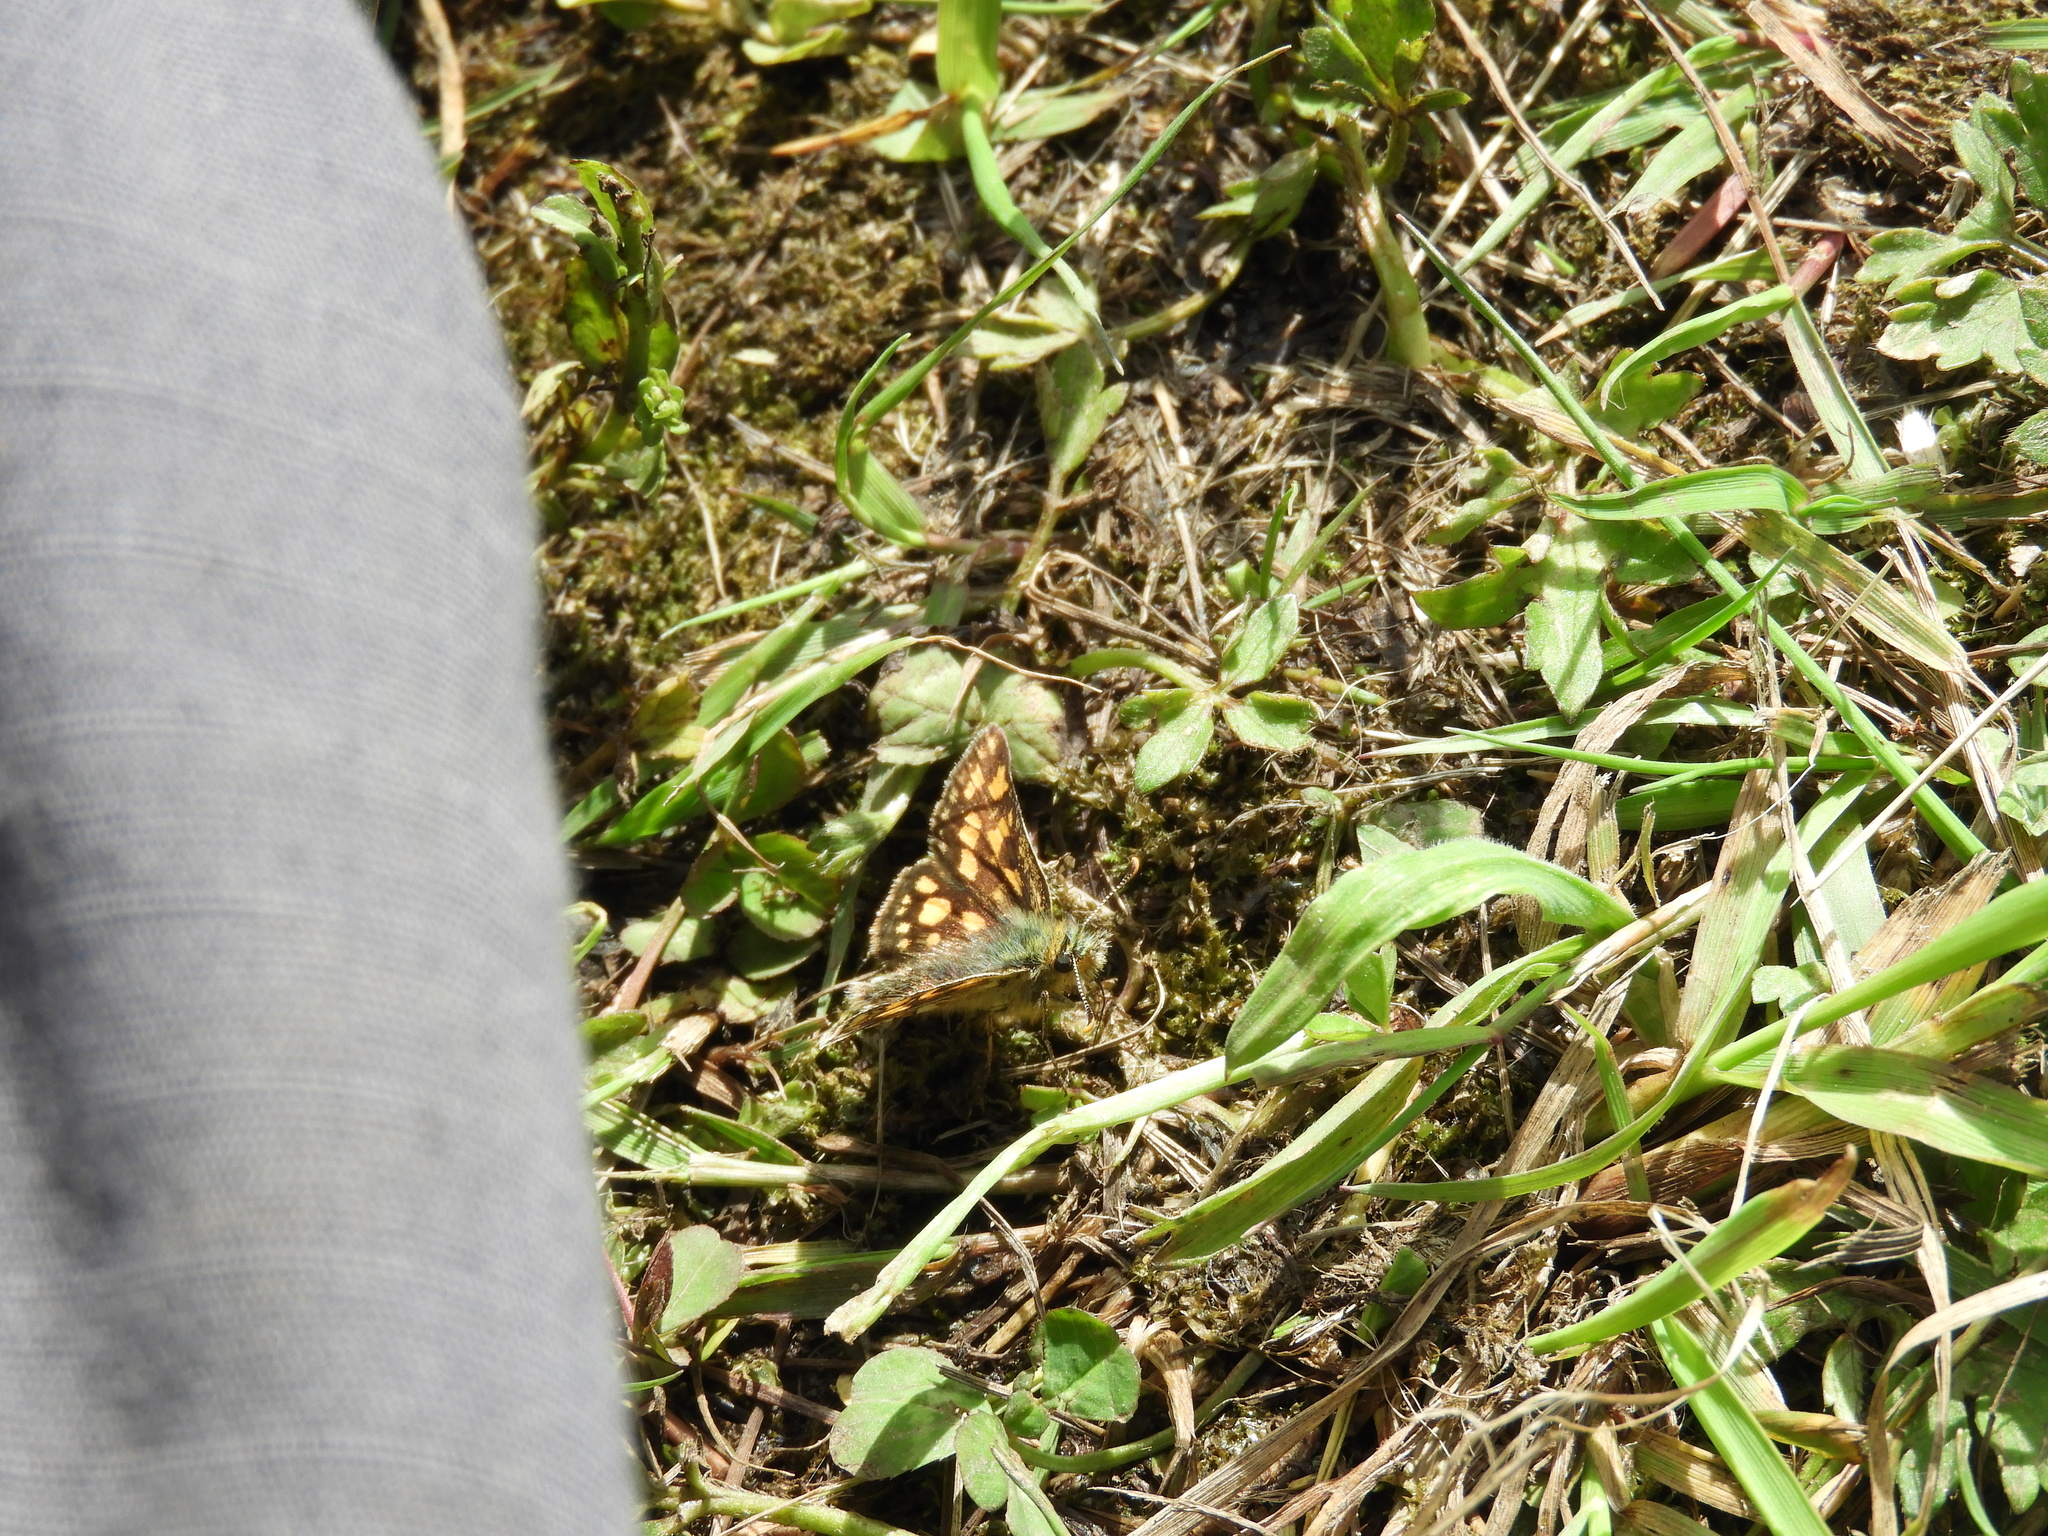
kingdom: Animalia
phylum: Arthropoda
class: Insecta
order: Lepidoptera
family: Hesperiidae
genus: Carterocephalus
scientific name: Carterocephalus skada
